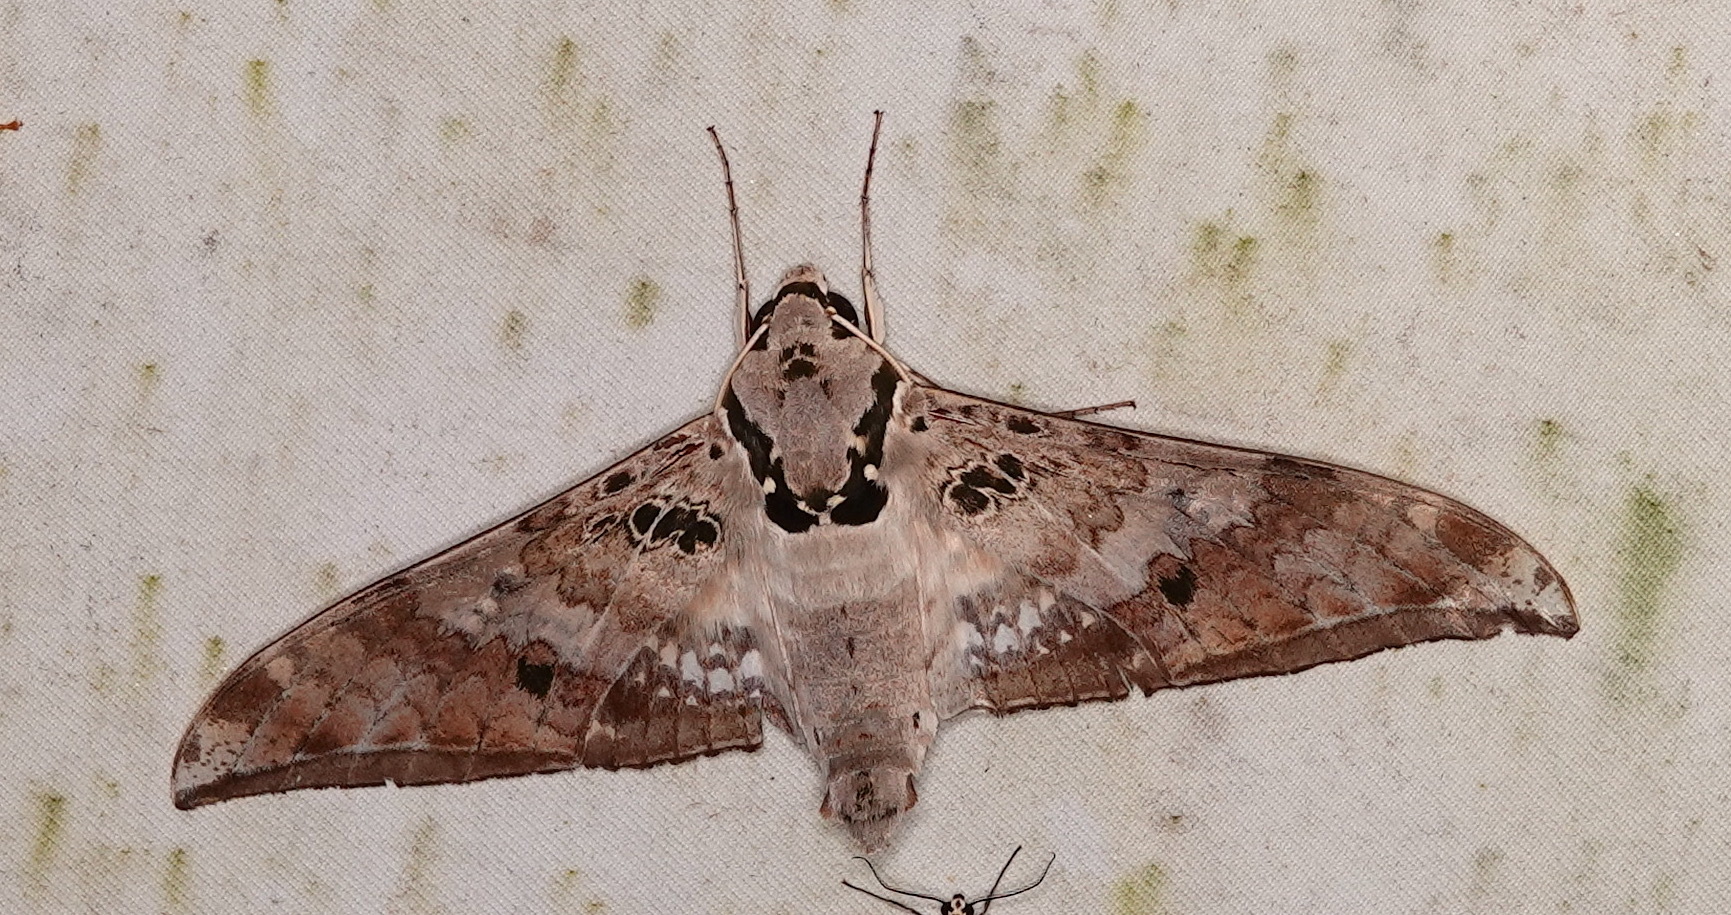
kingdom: Animalia
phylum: Arthropoda
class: Insecta
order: Lepidoptera
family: Sphingidae
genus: Ambulyx
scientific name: Ambulyx canescens
